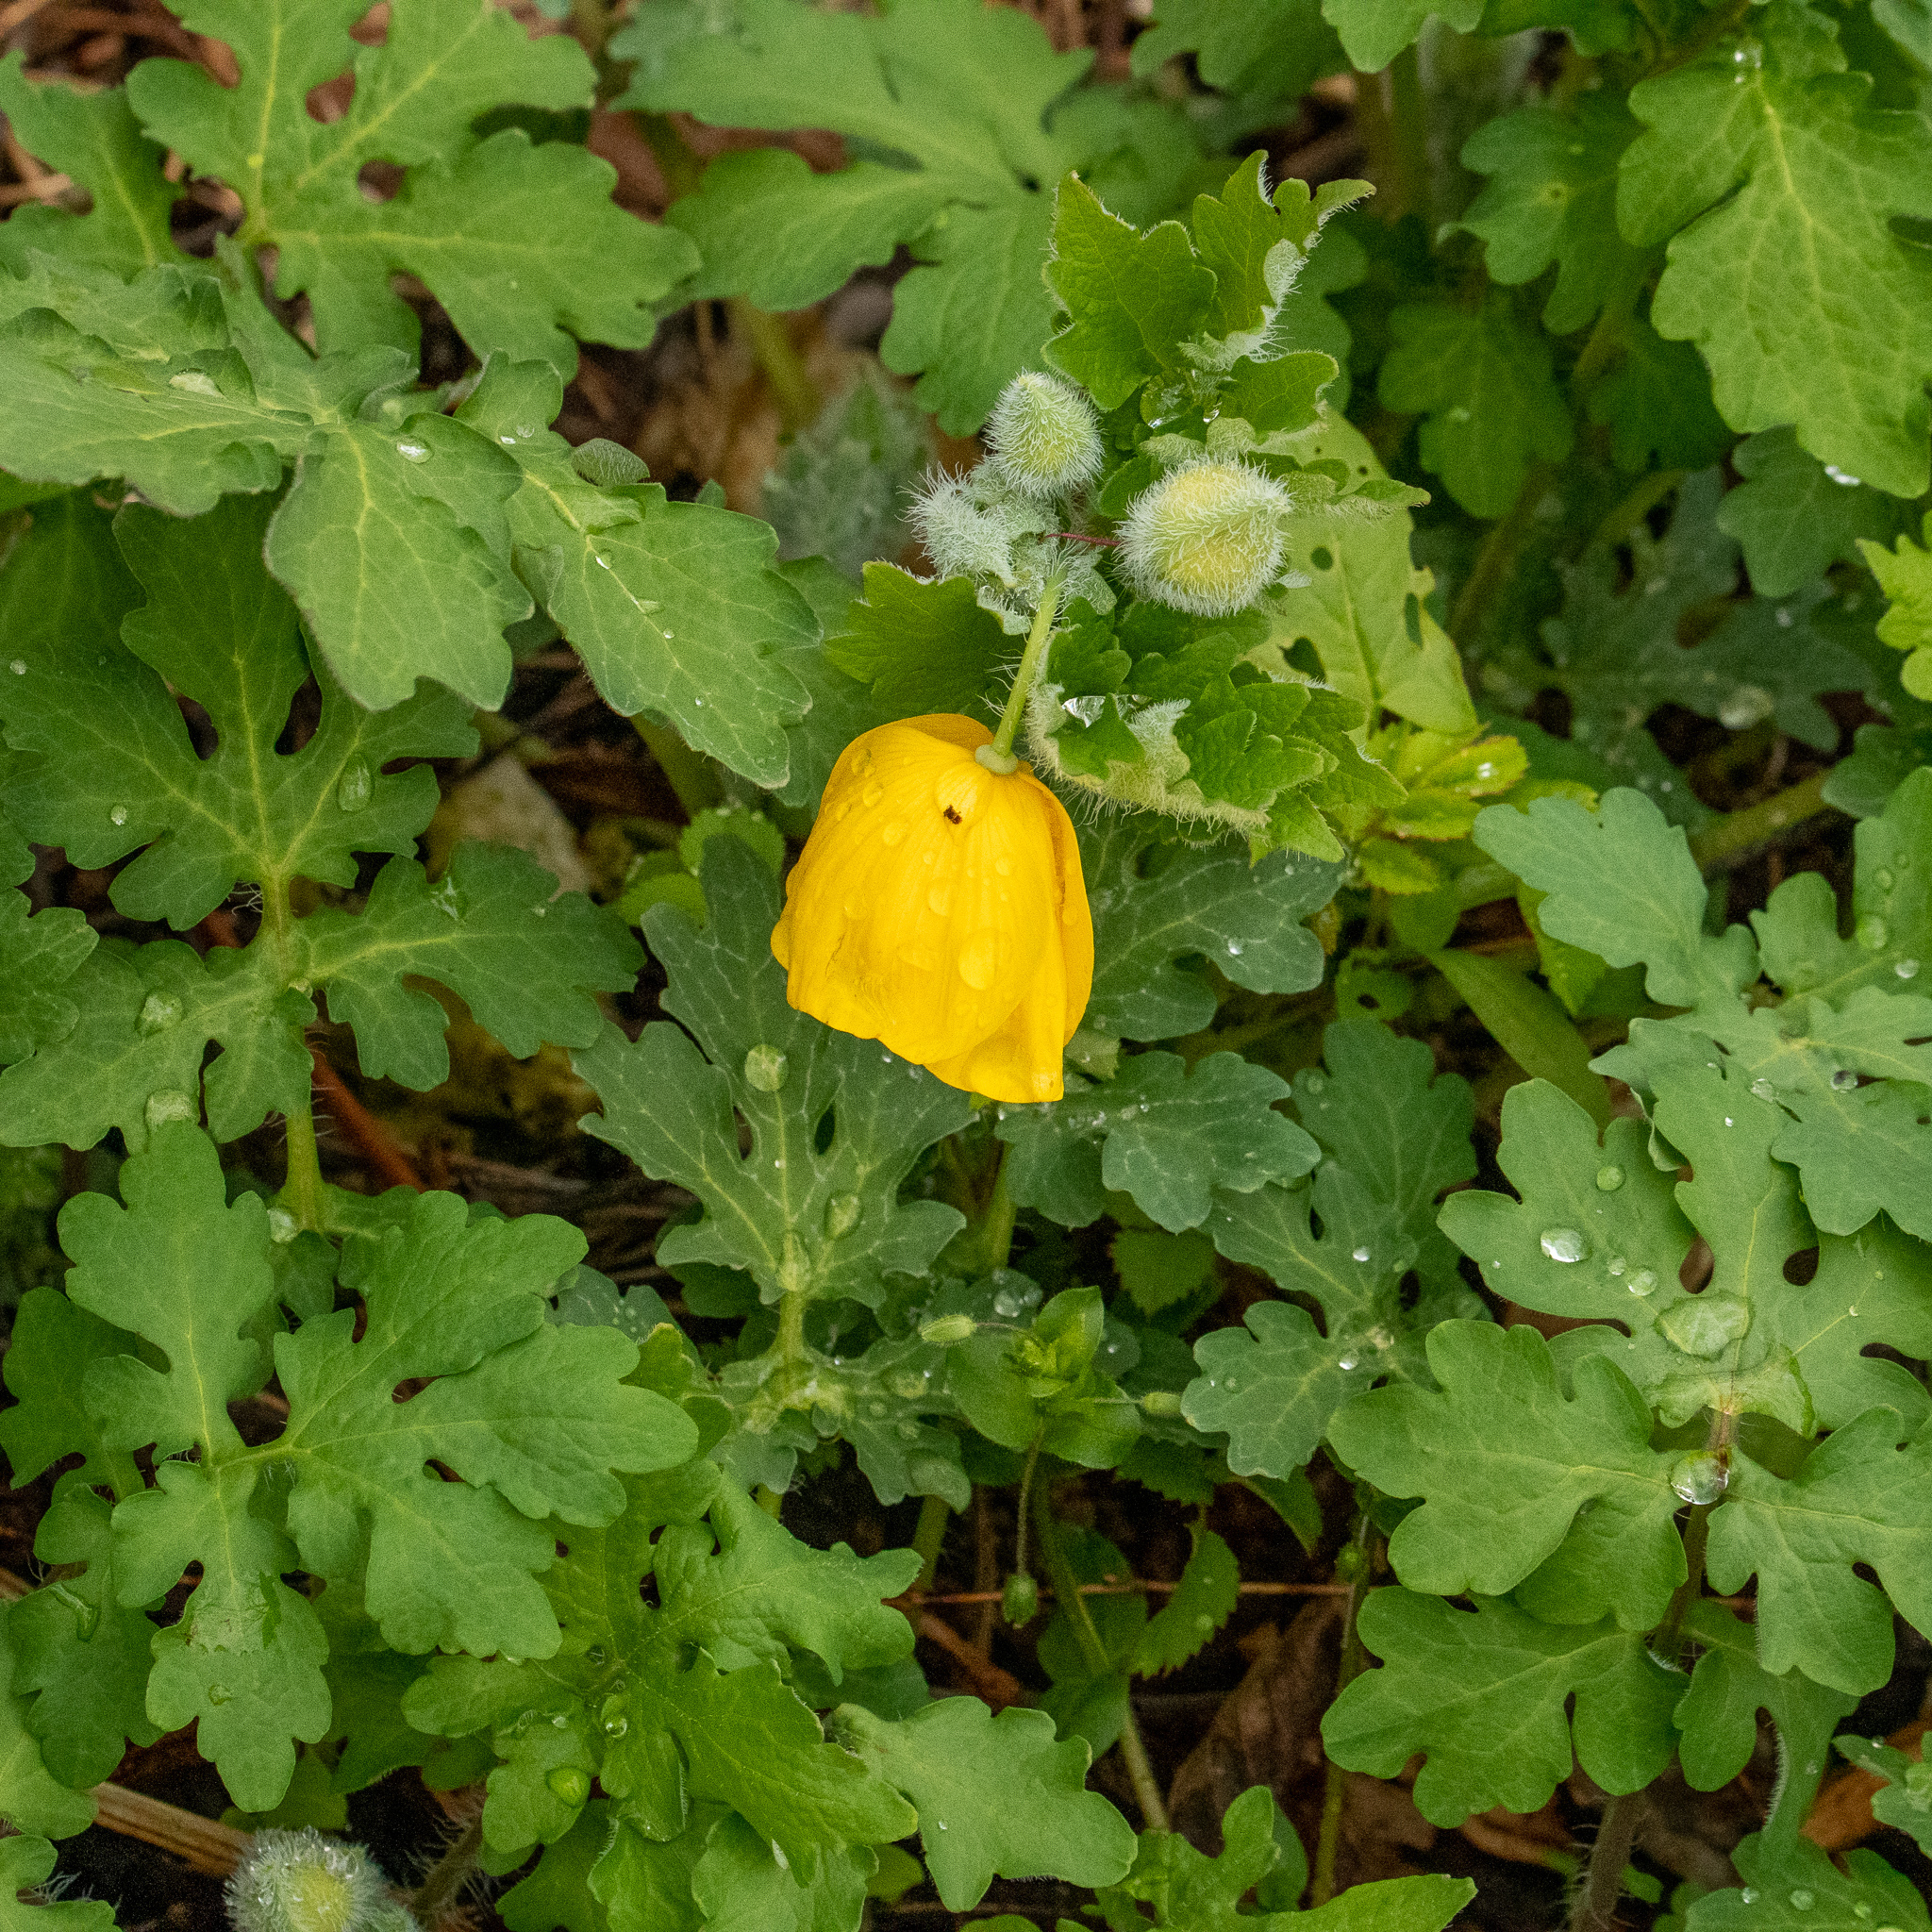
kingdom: Plantae
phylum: Tracheophyta
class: Magnoliopsida
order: Ranunculales
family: Papaveraceae
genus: Stylophorum
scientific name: Stylophorum diphyllum
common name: Celandine poppy
